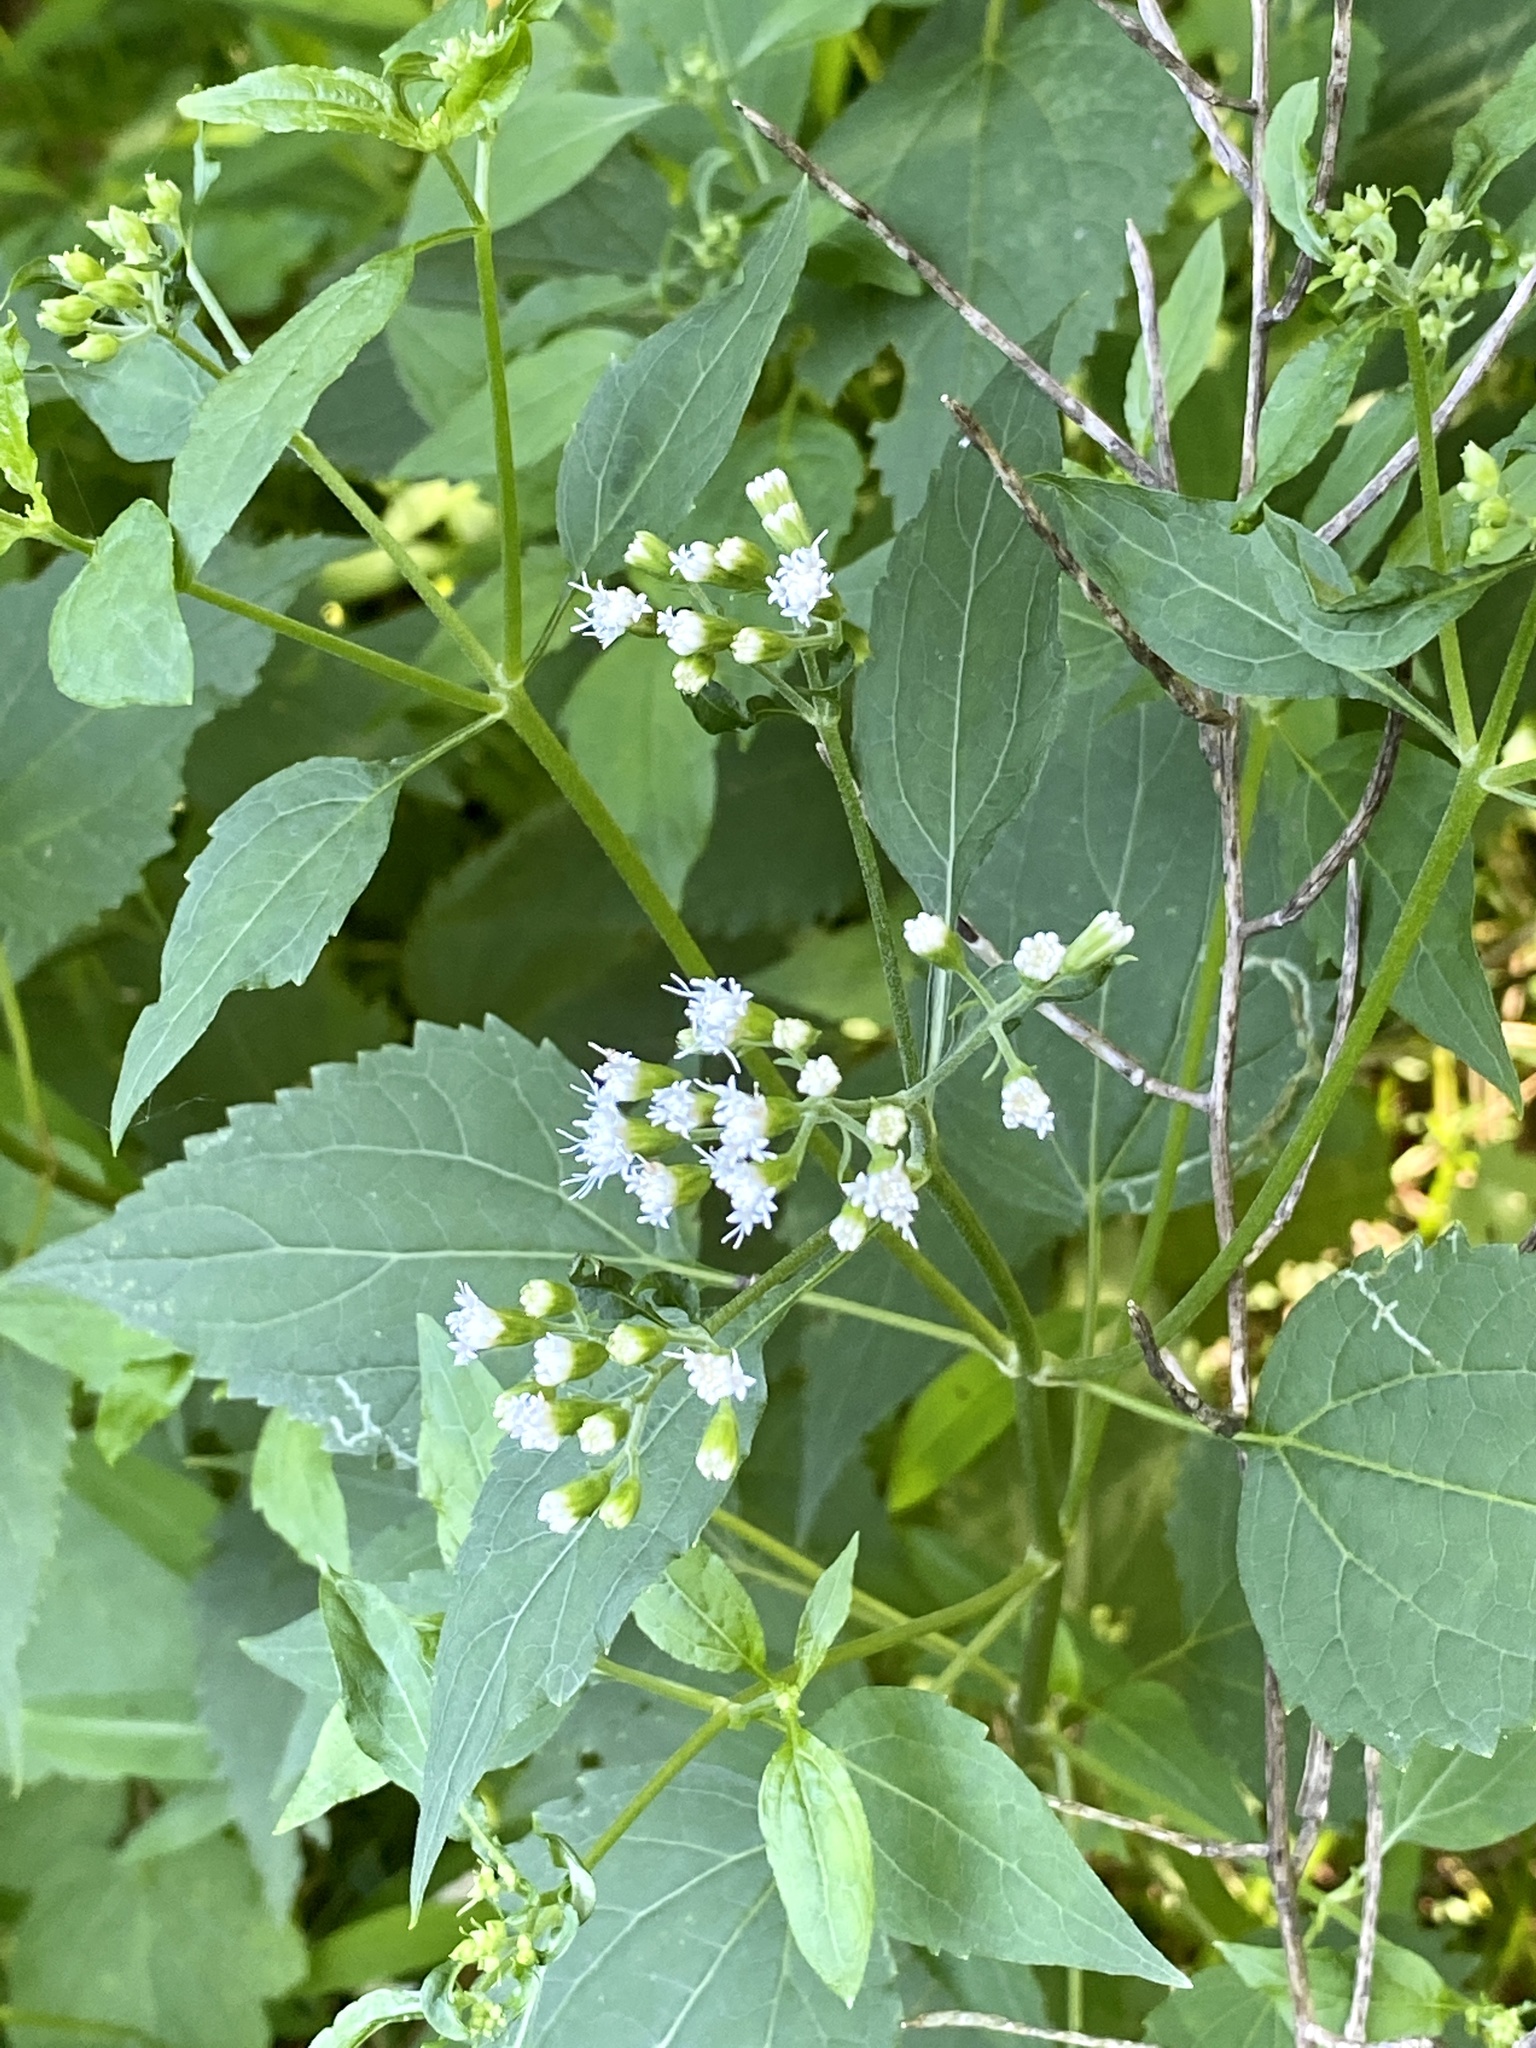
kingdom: Plantae
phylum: Tracheophyta
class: Magnoliopsida
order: Asterales
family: Asteraceae
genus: Ageratina
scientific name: Ageratina altissima
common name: White snakeroot
